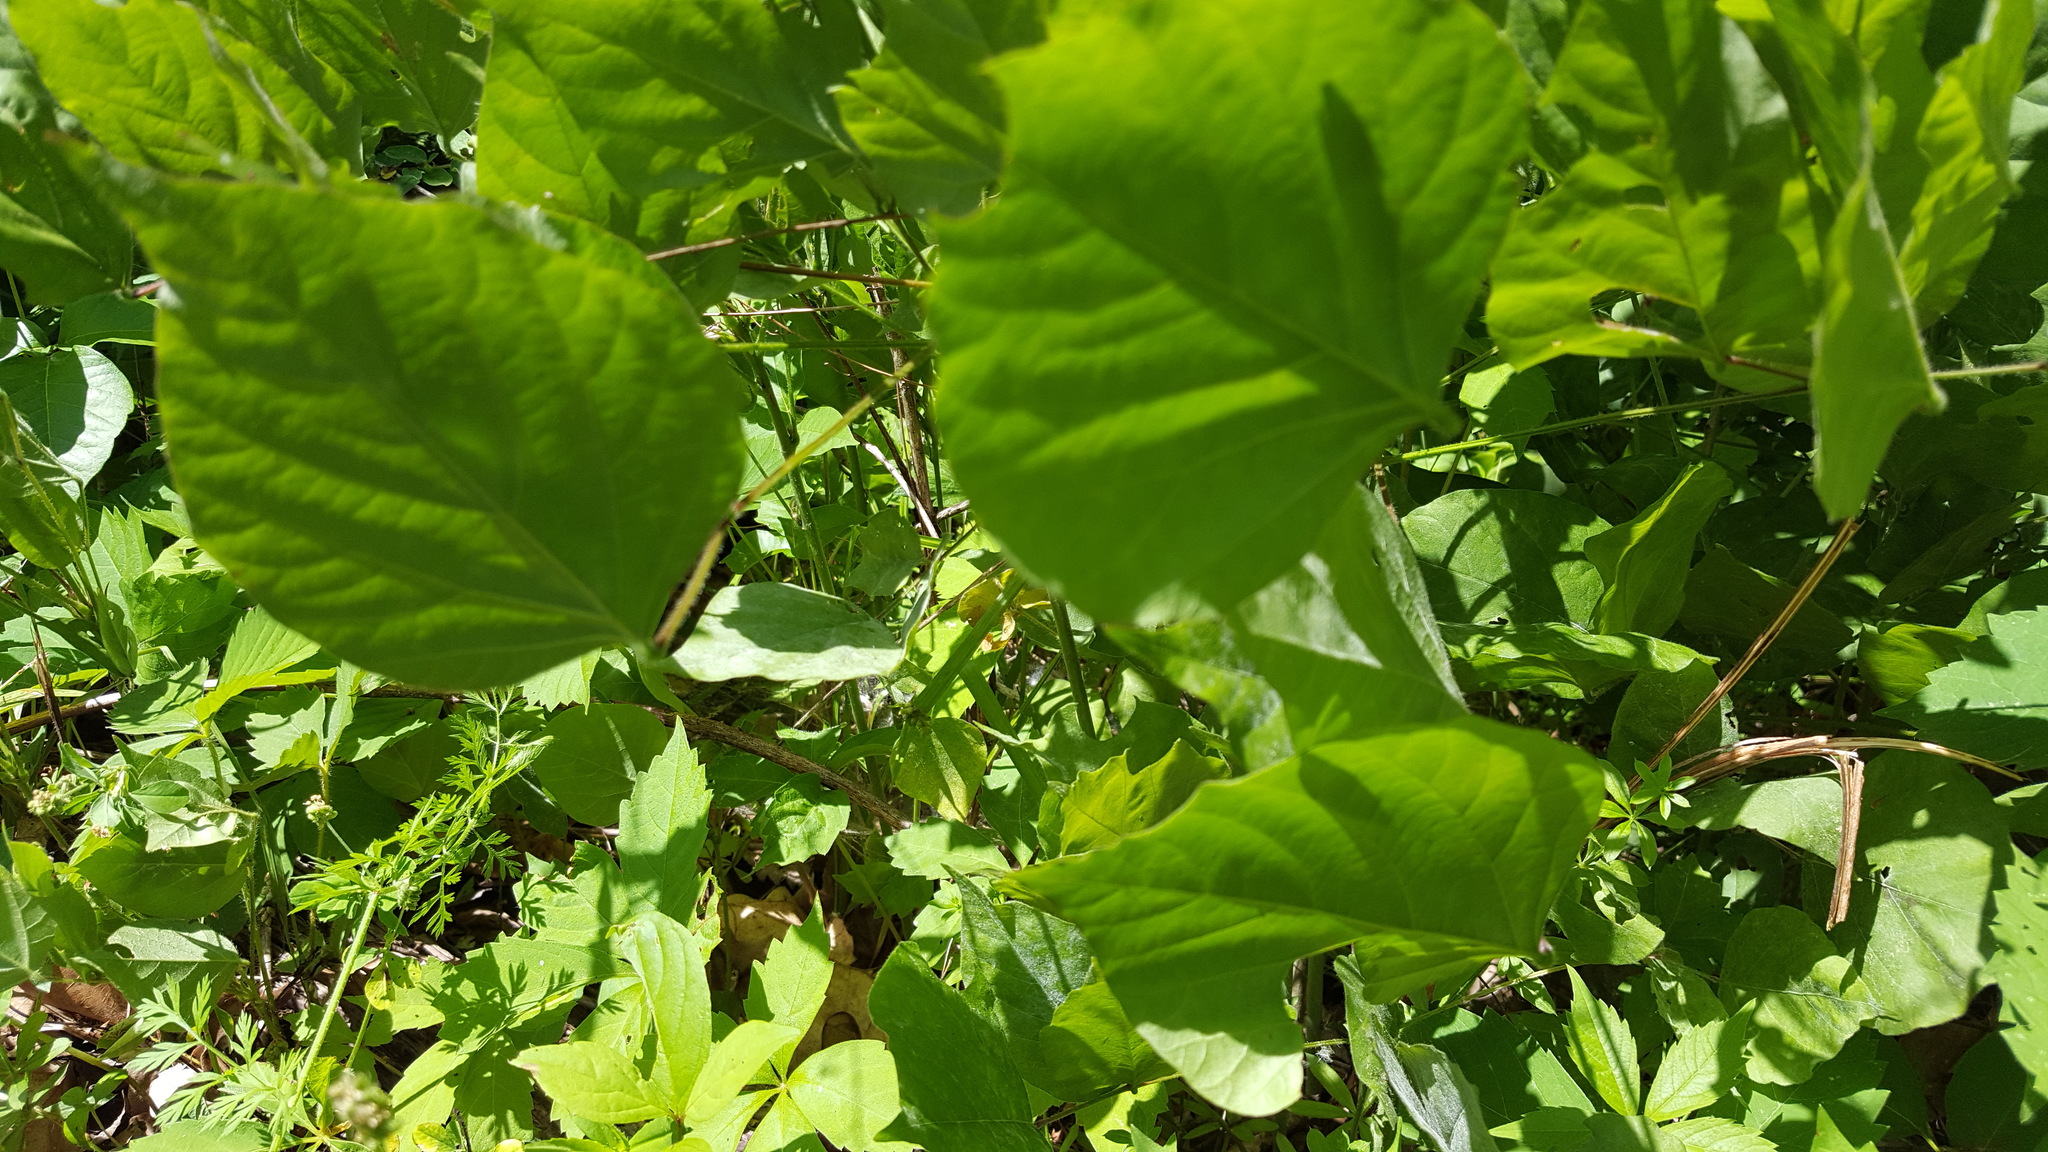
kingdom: Plantae
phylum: Tracheophyta
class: Magnoliopsida
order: Fabales
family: Fabaceae
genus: Hylodesmum
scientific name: Hylodesmum glutinosum
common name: Clustered-leaved tick-trefoil
